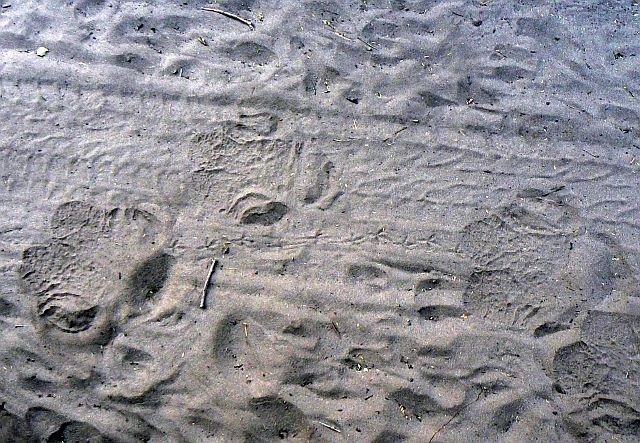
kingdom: Animalia
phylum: Chordata
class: Mammalia
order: Perissodactyla
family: Rhinocerotidae
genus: Ceratotherium
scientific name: Ceratotherium simum
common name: White rhinoceros
